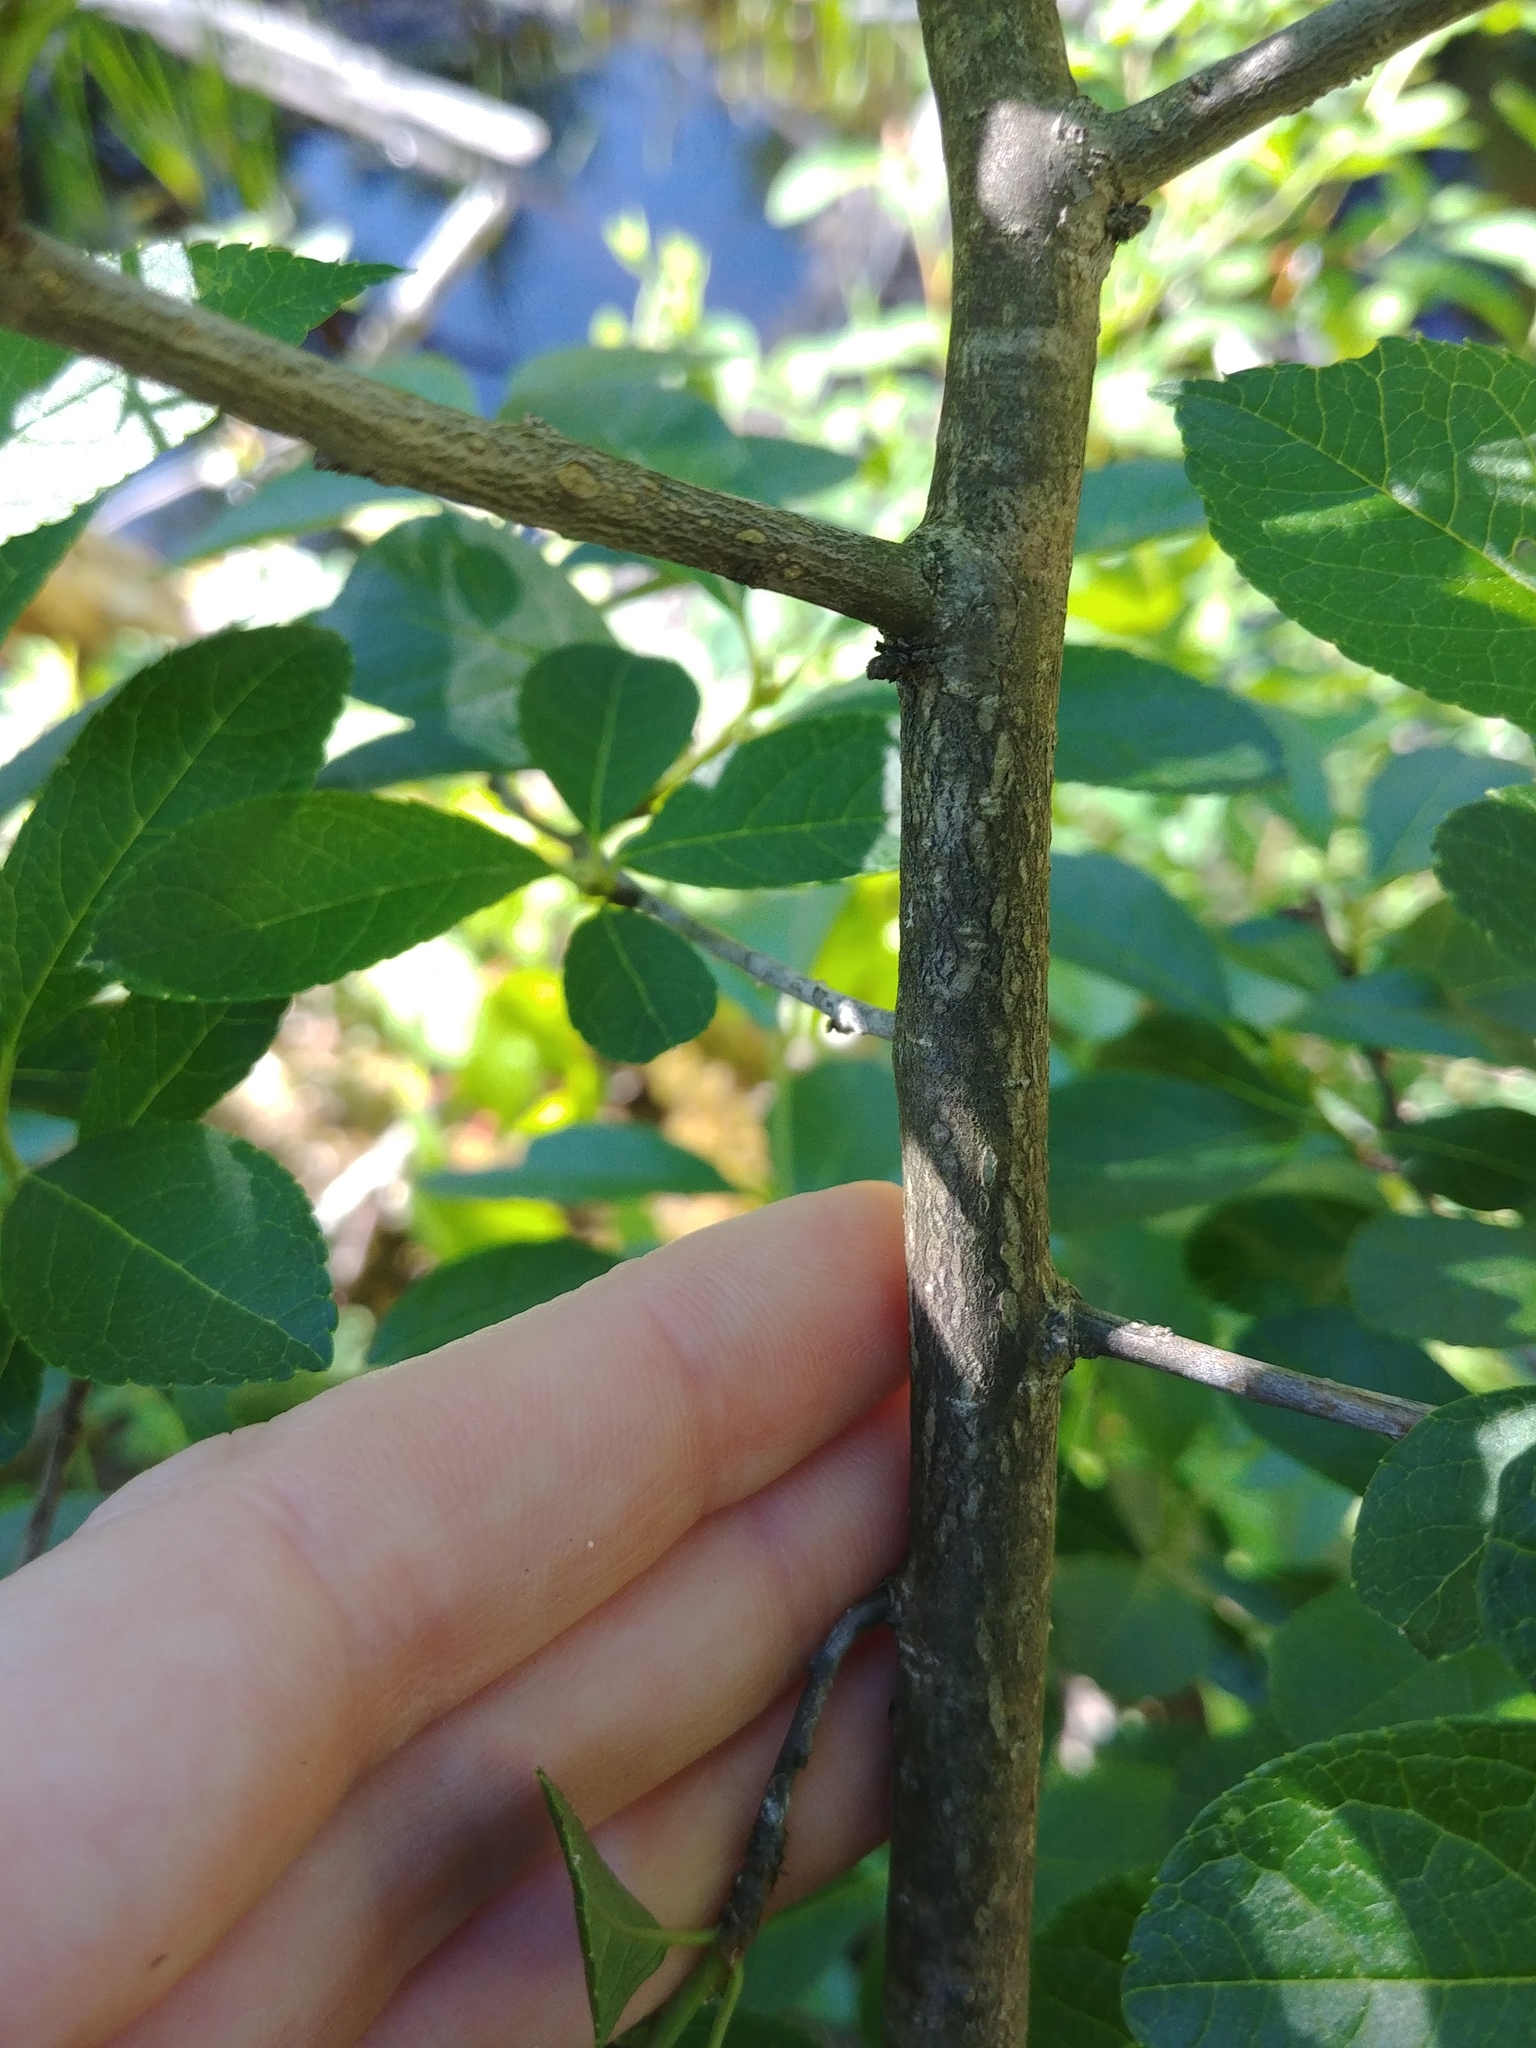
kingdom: Plantae
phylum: Tracheophyta
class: Magnoliopsida
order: Aquifoliales
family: Aquifoliaceae
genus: Ilex
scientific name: Ilex verticillata
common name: Virginia winterberry
